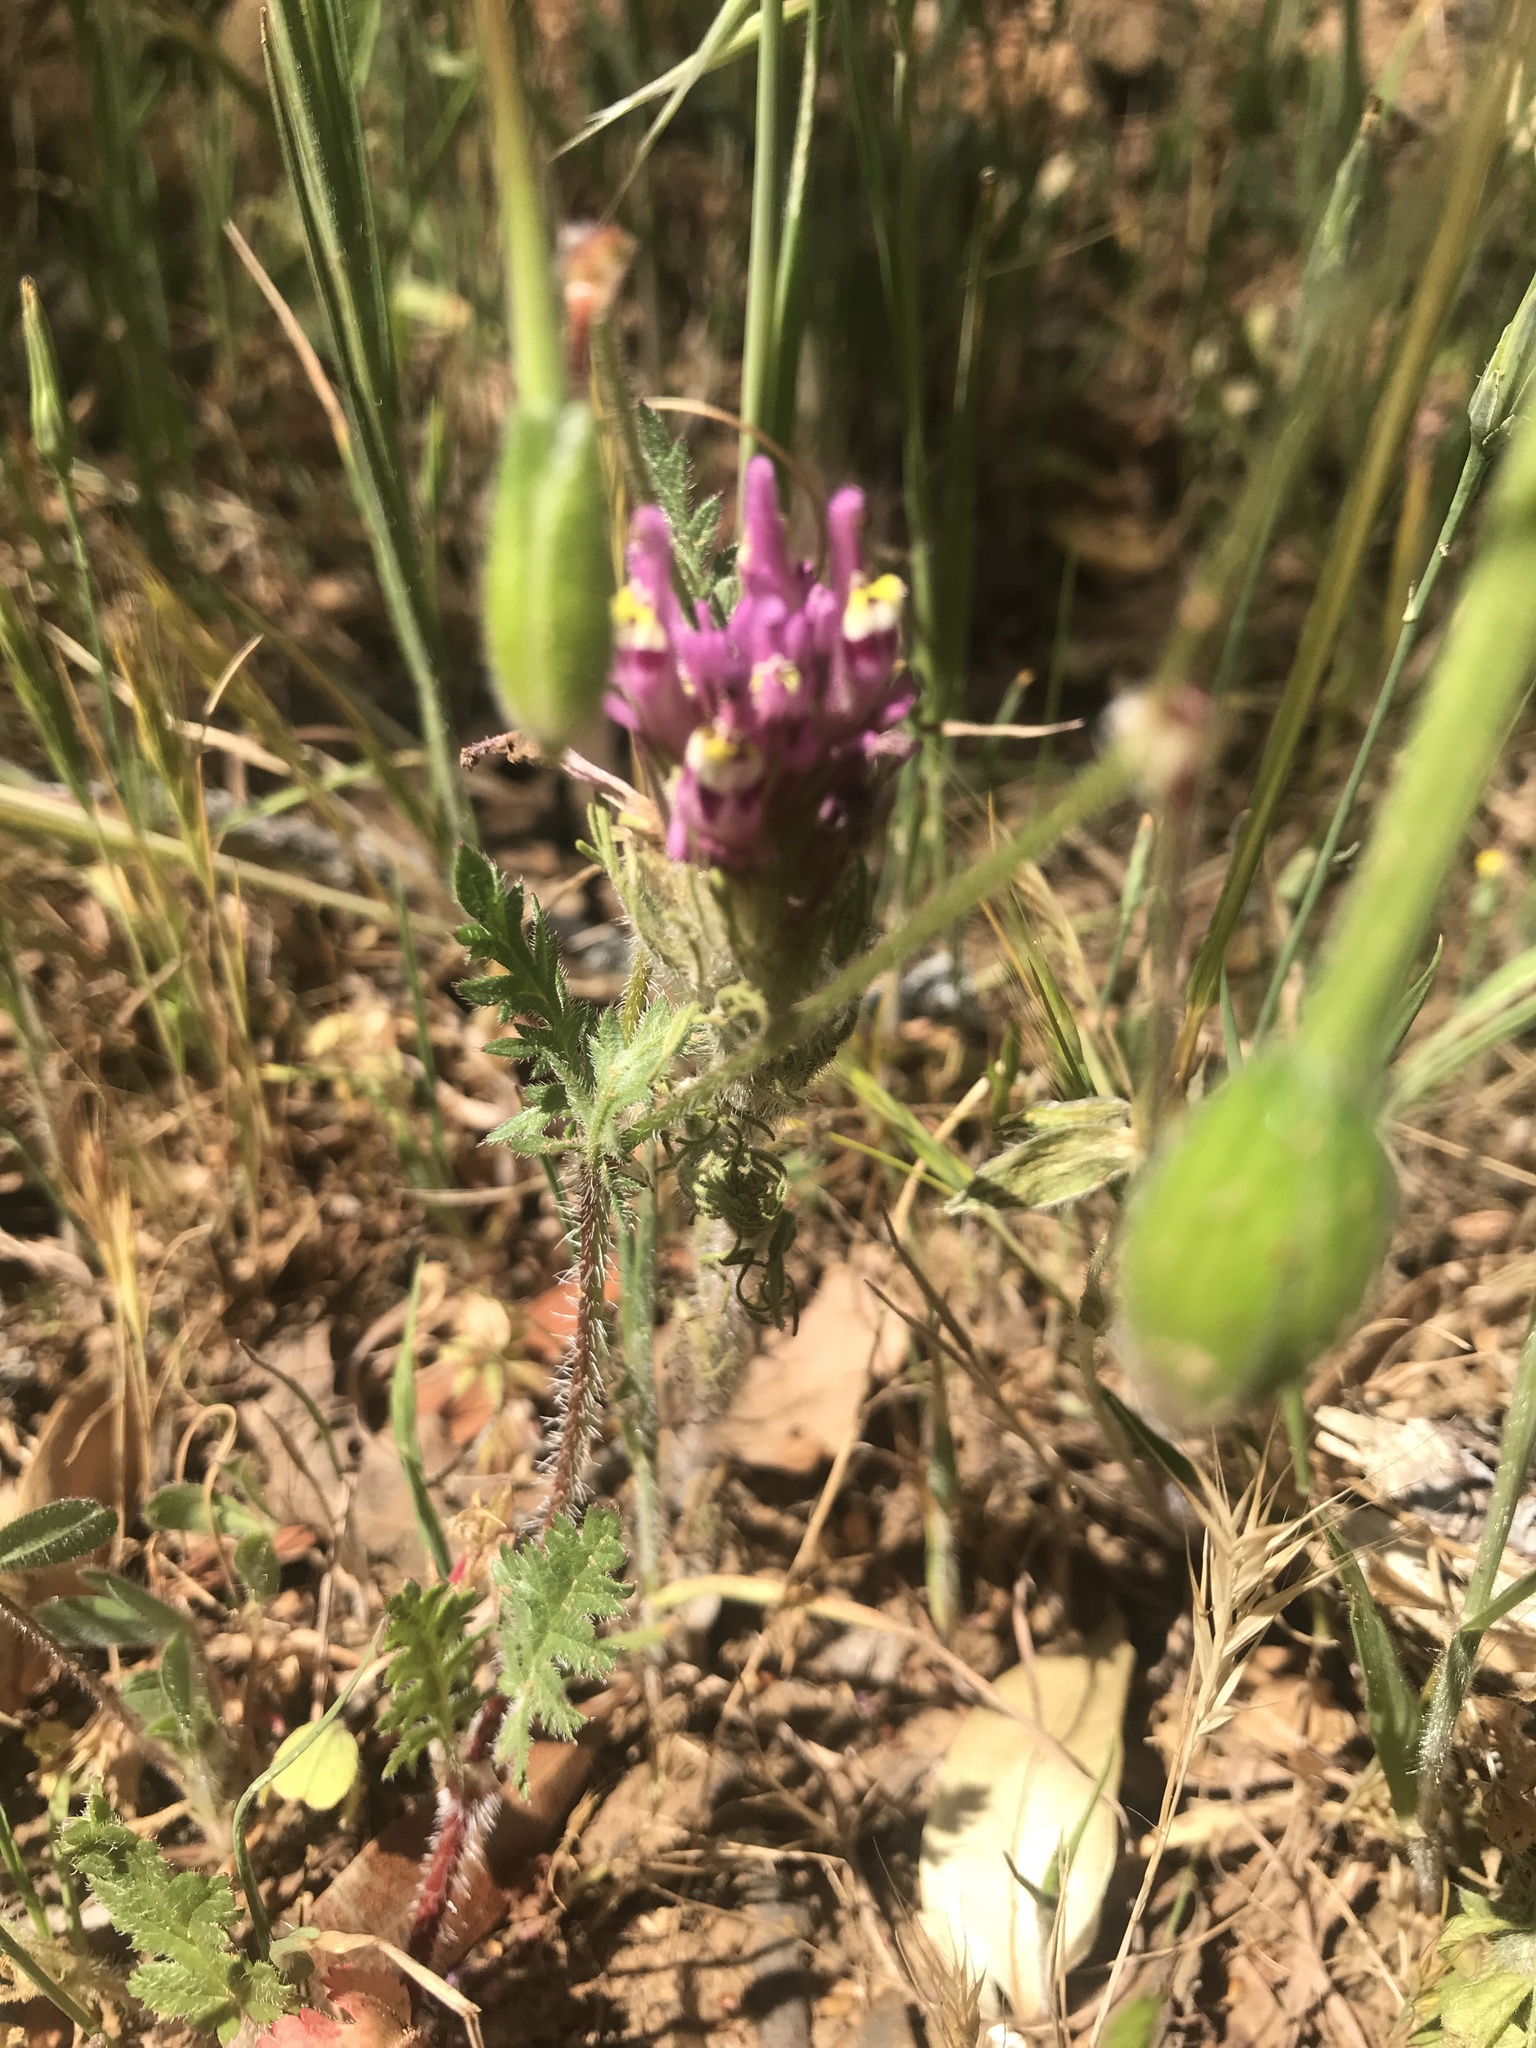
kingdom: Plantae
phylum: Tracheophyta
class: Magnoliopsida
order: Lamiales
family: Orobanchaceae
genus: Castilleja
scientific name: Castilleja exserta
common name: Purple owl-clover
